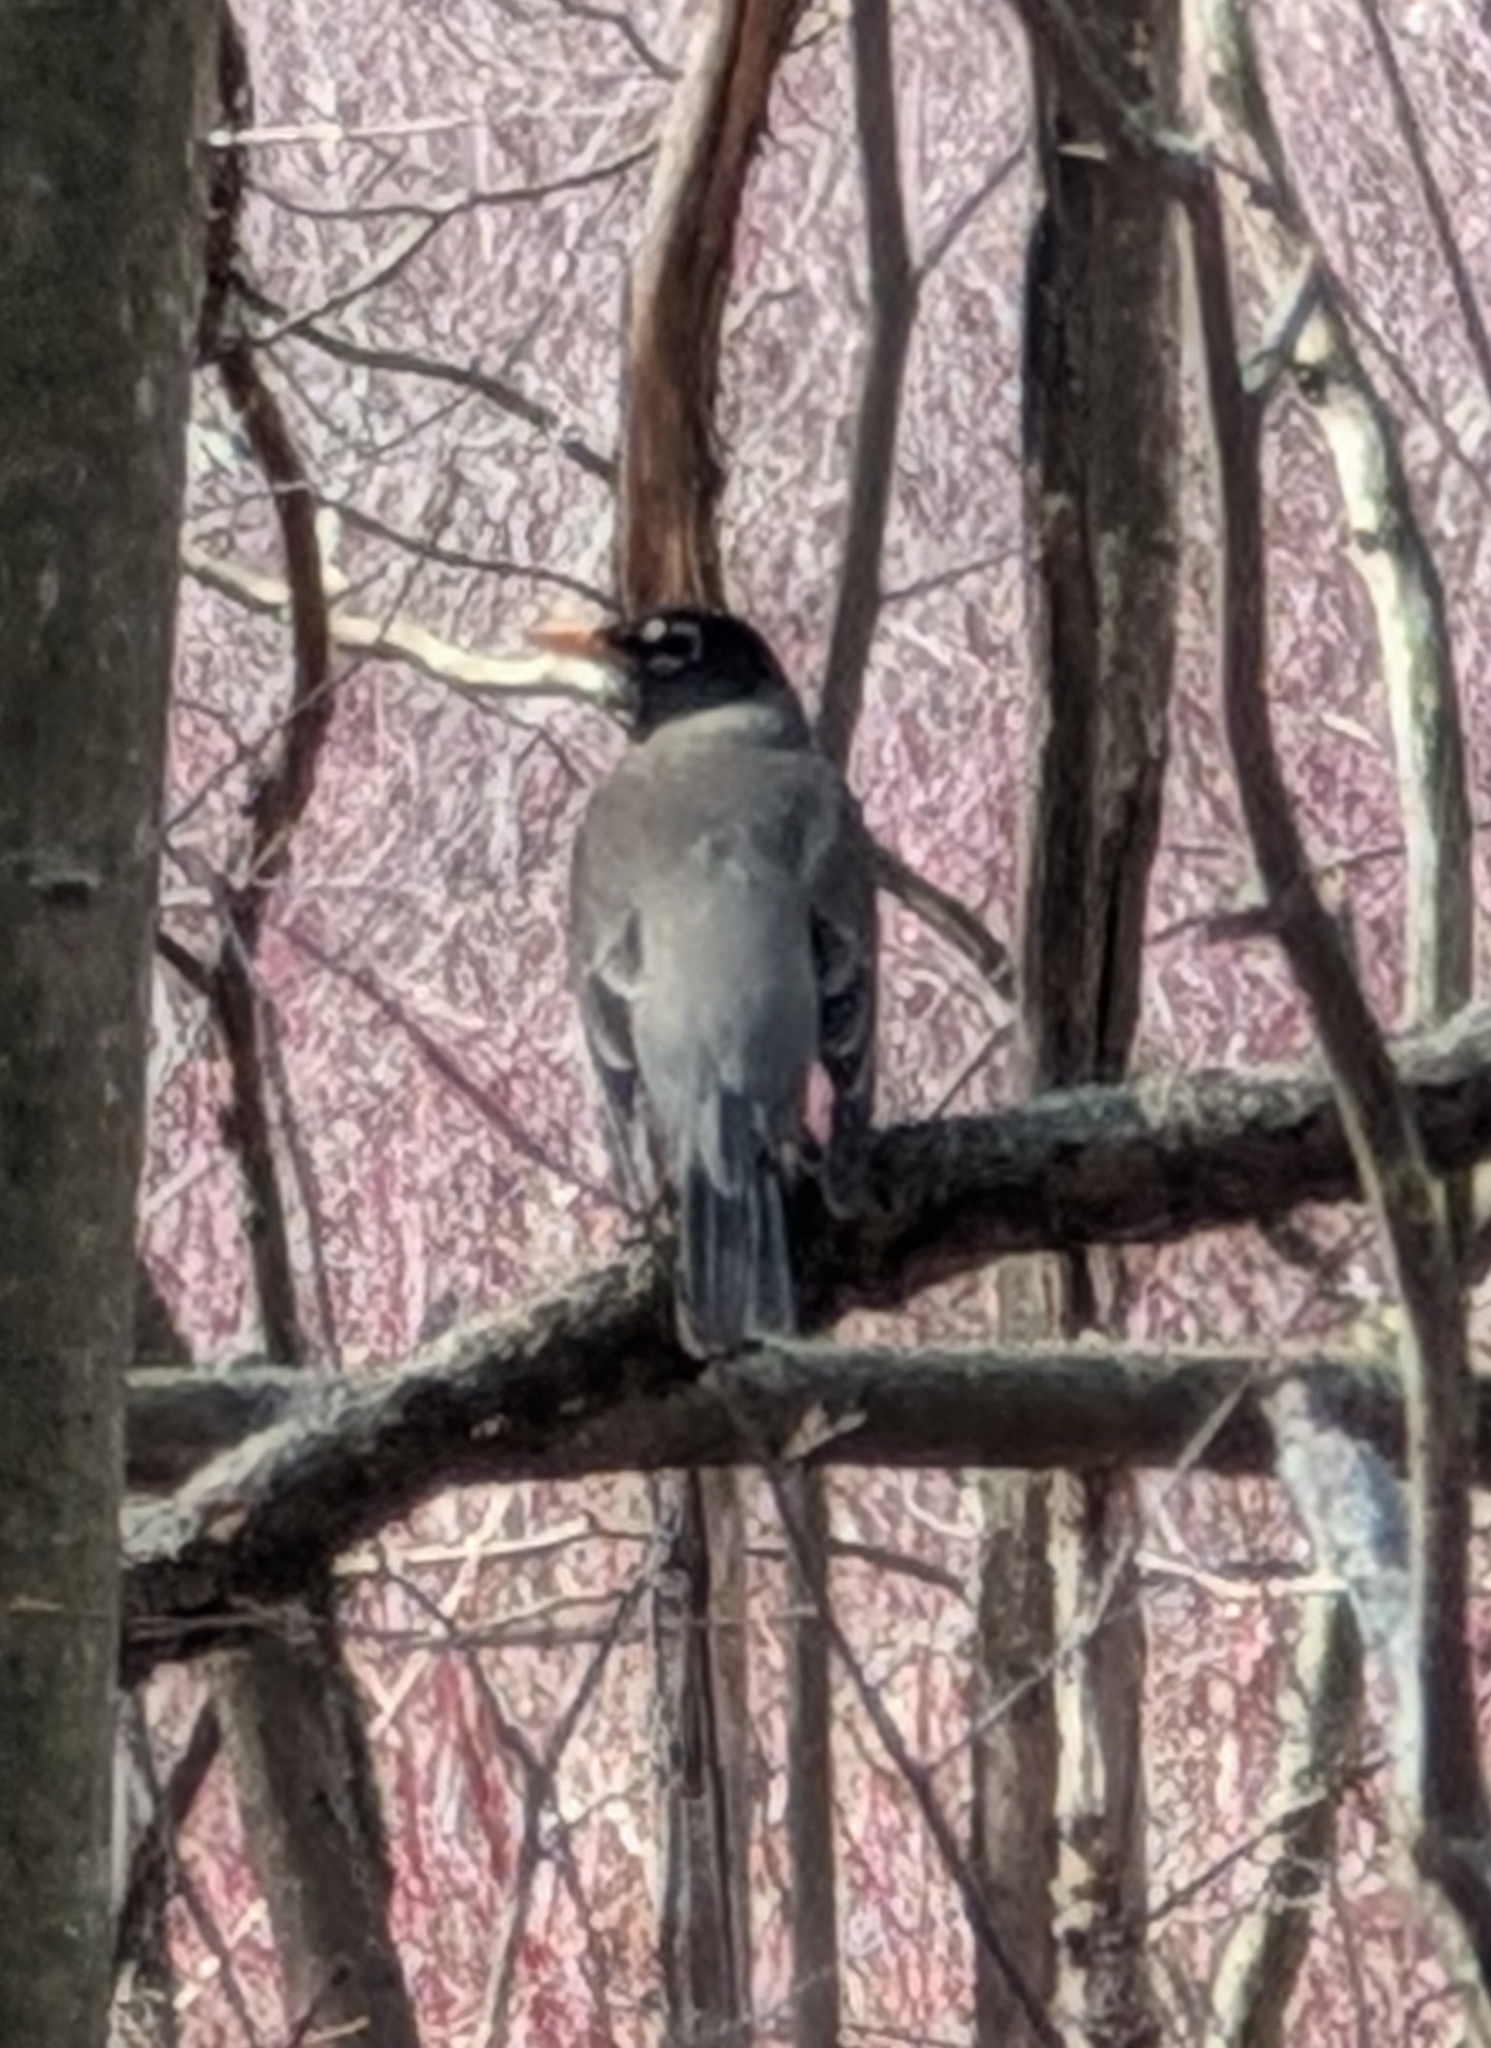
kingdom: Animalia
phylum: Chordata
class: Aves
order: Passeriformes
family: Turdidae
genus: Turdus
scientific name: Turdus migratorius
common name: American robin
